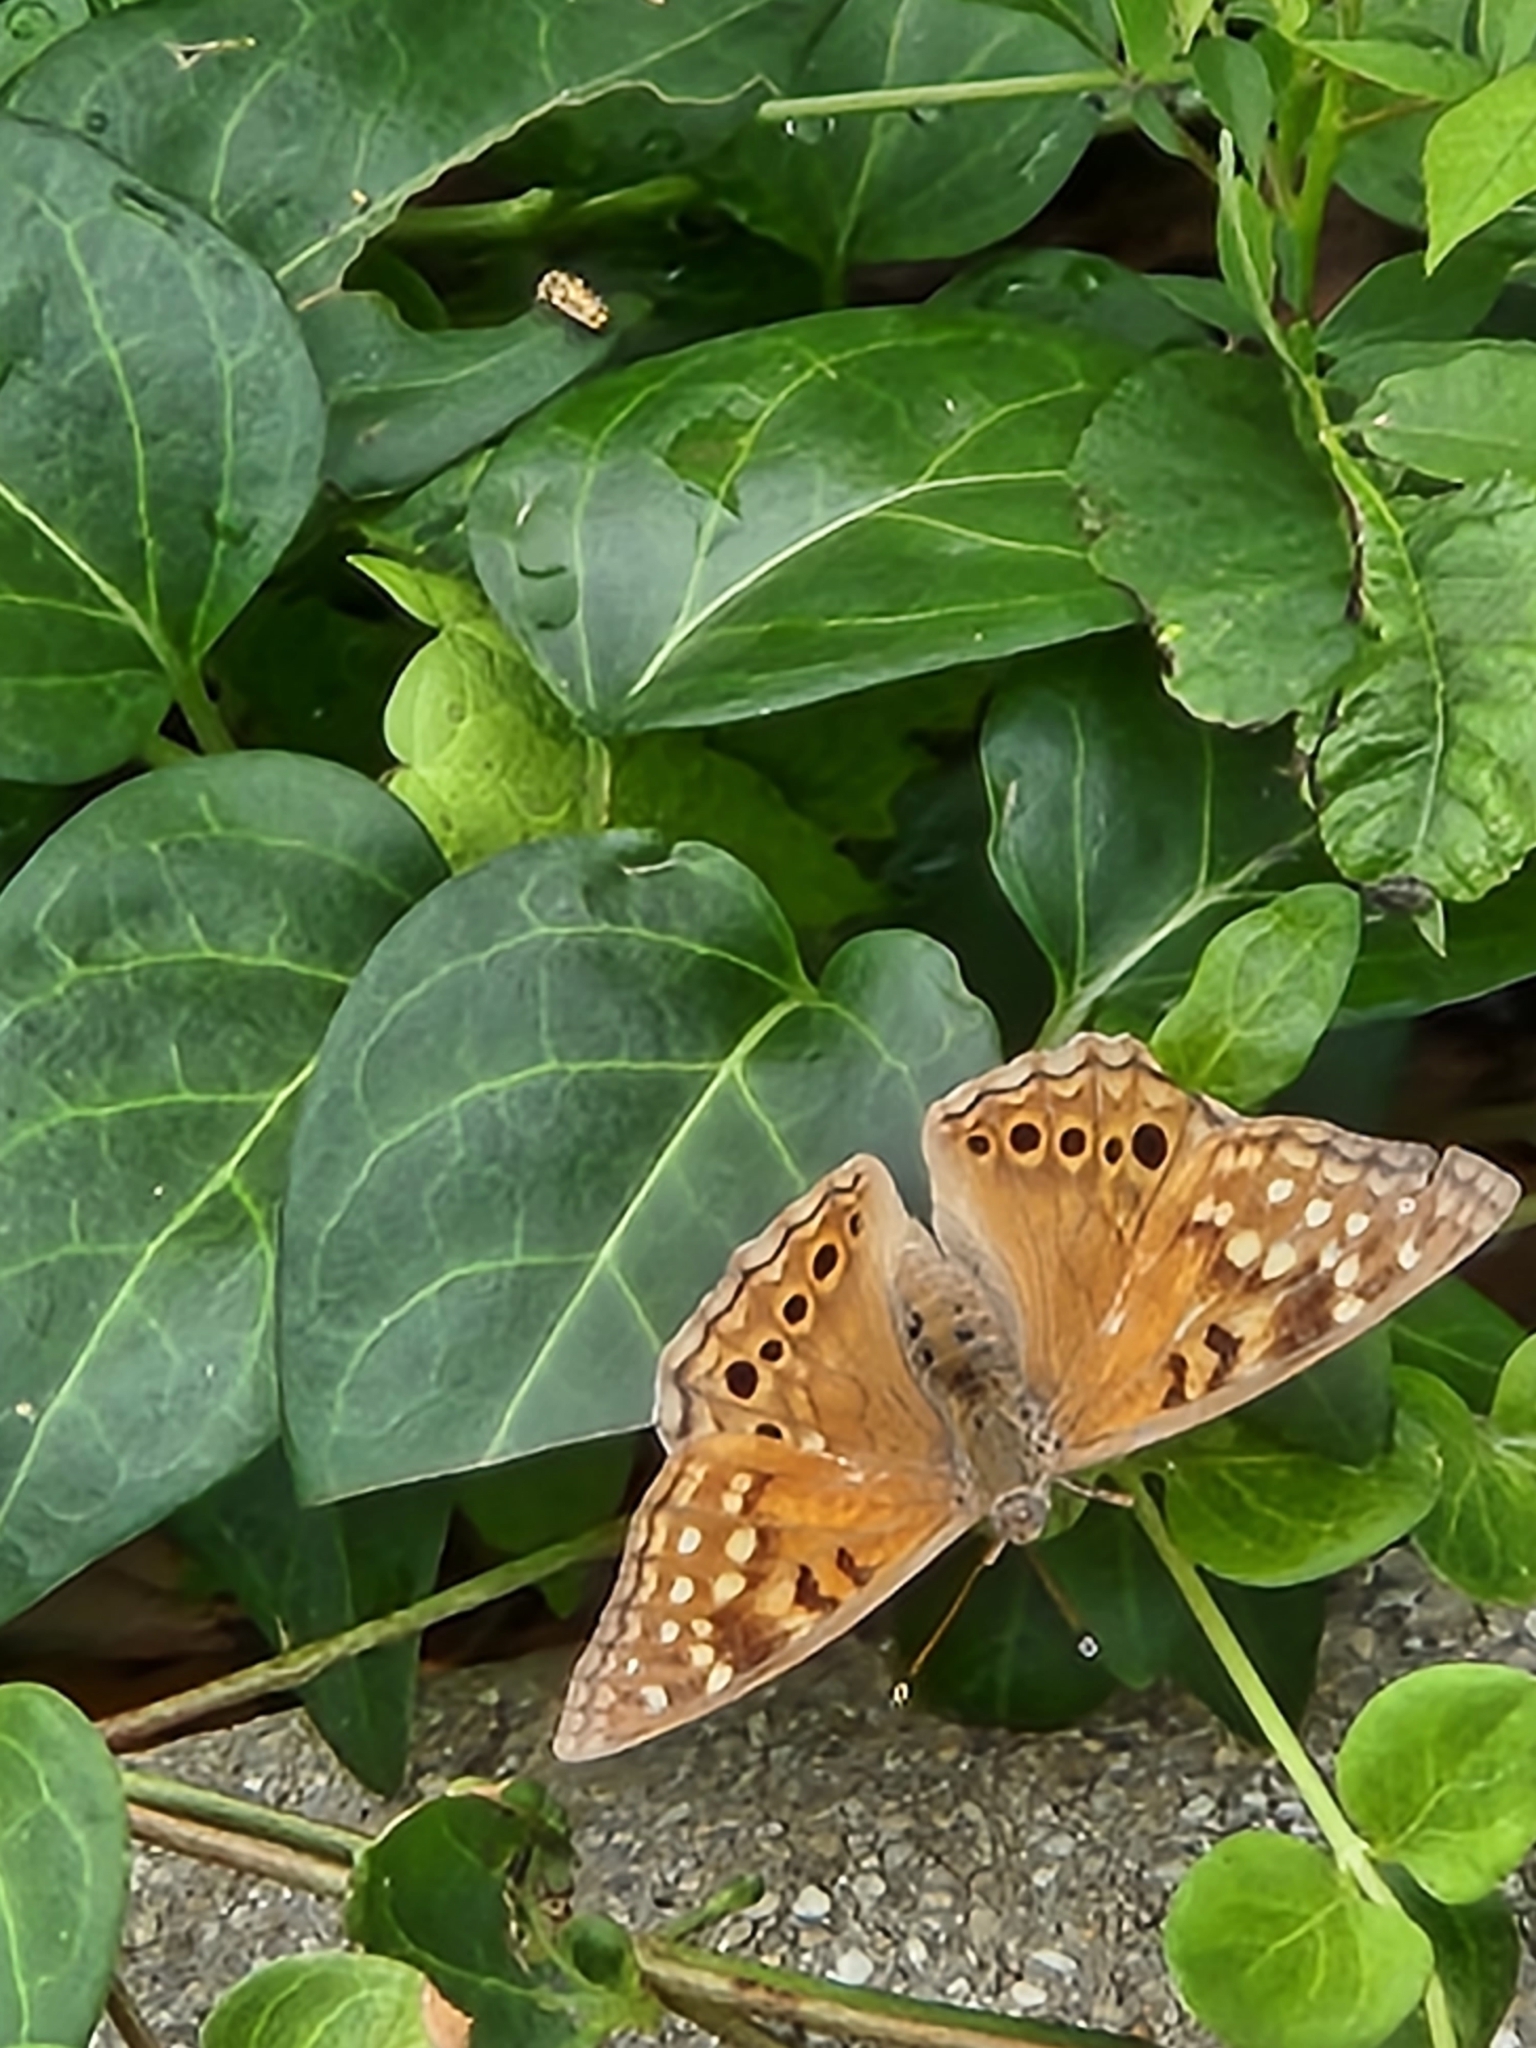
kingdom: Animalia
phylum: Arthropoda
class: Insecta
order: Lepidoptera
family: Nymphalidae
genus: Asterocampa
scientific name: Asterocampa clyton
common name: Tawny emperor
